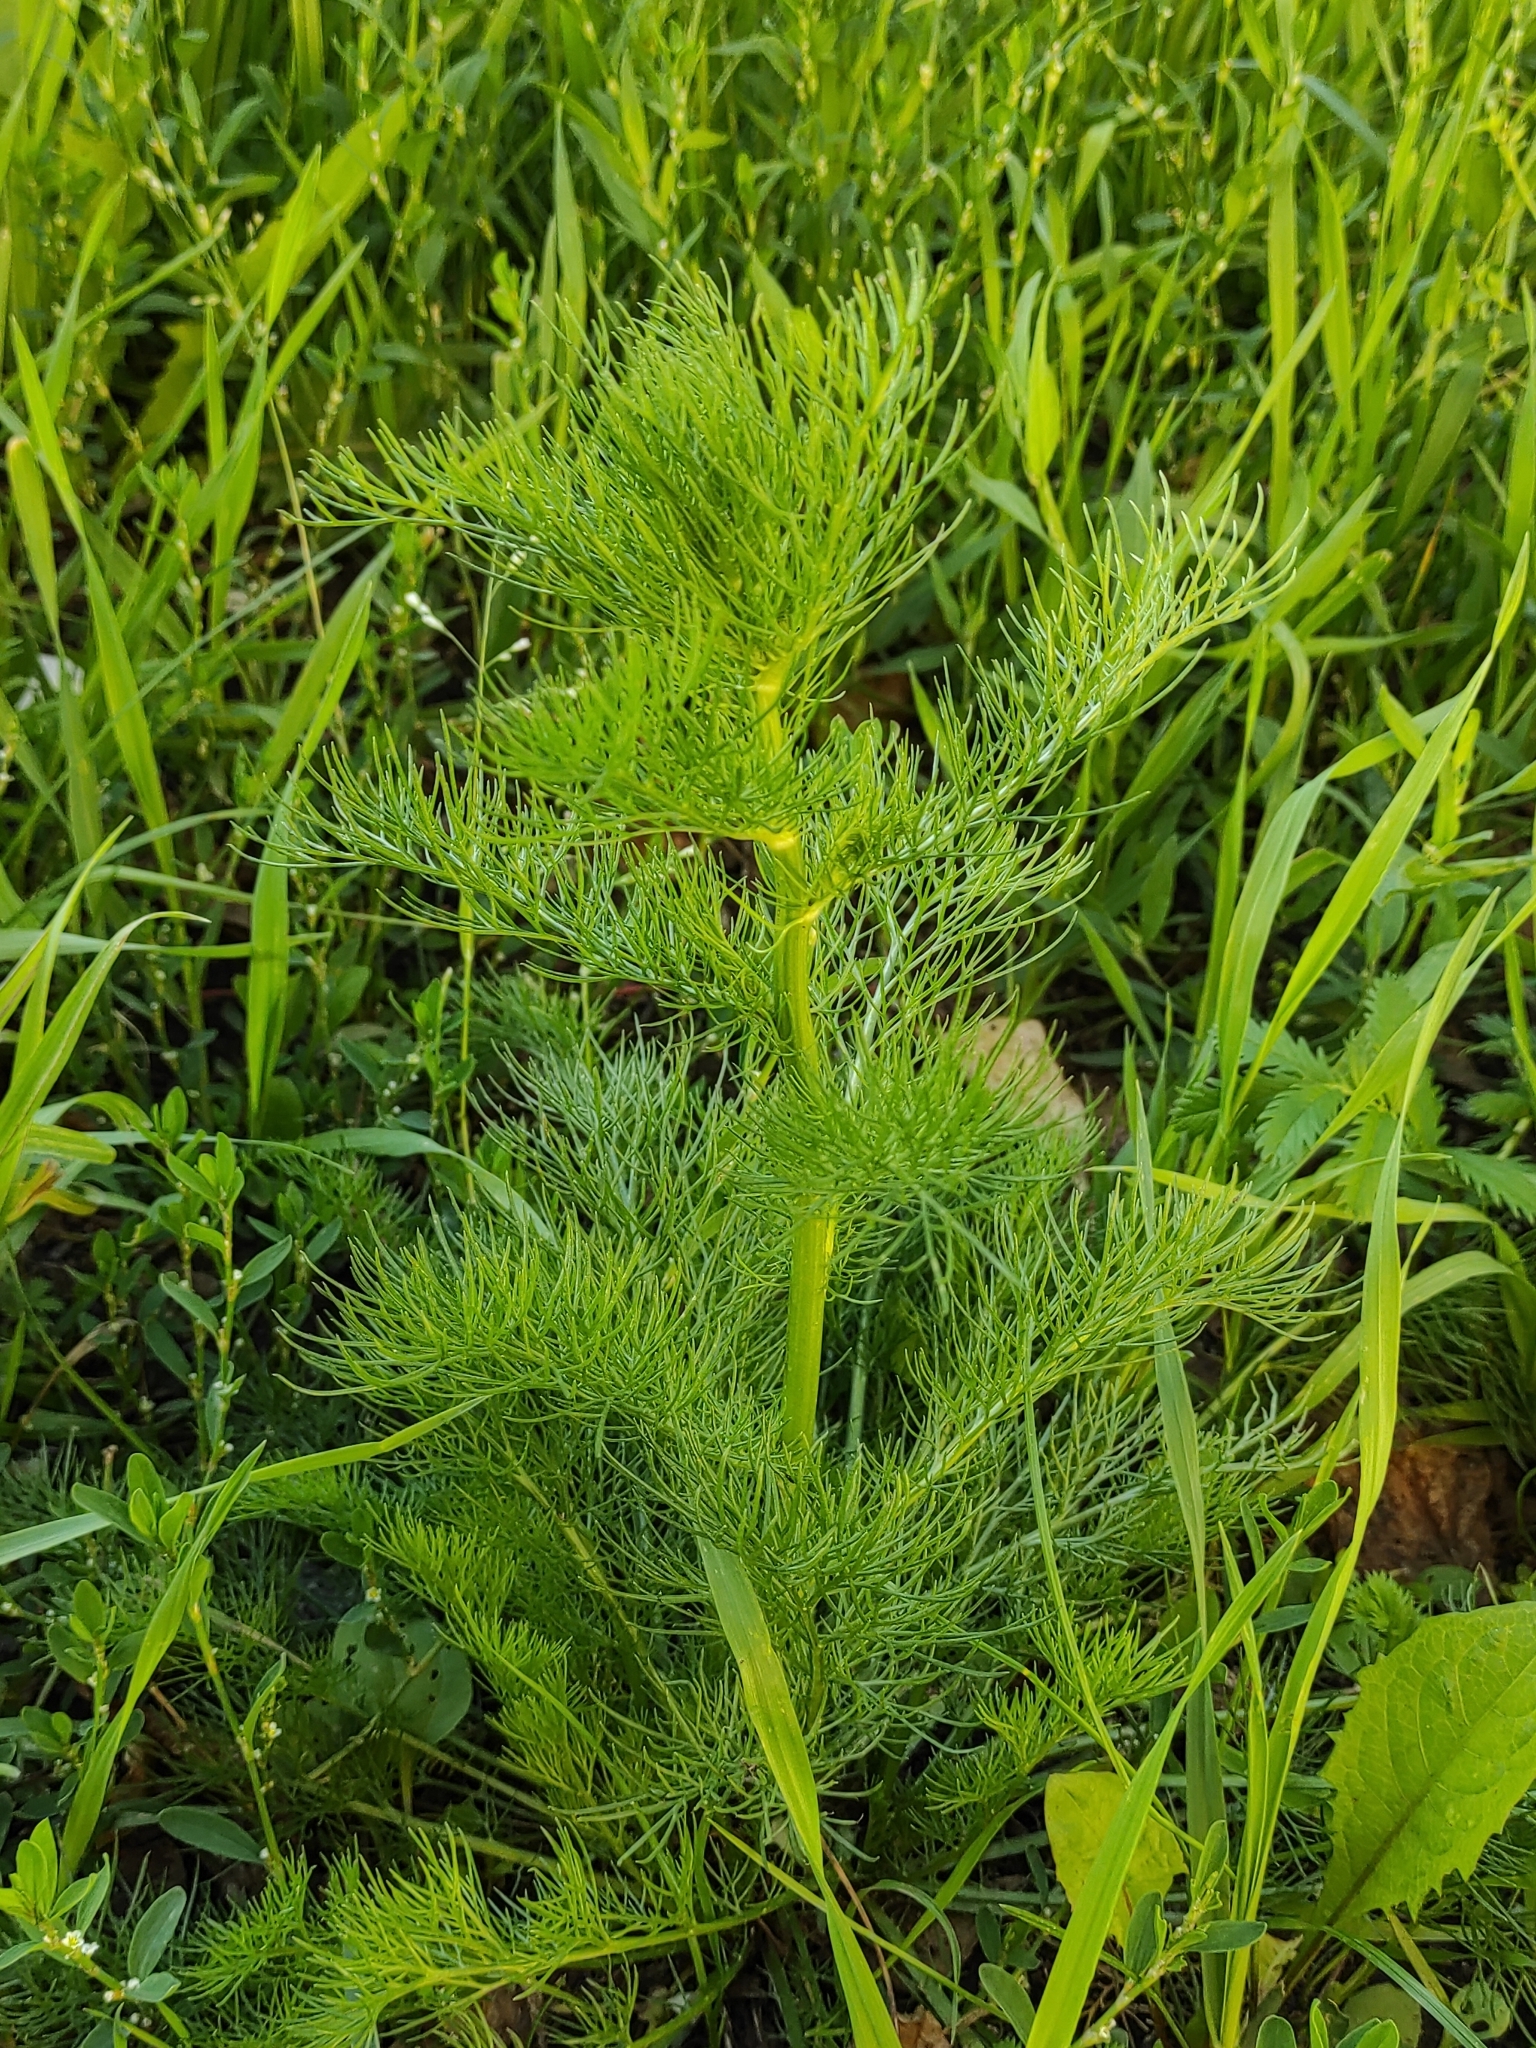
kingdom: Plantae
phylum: Tracheophyta
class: Magnoliopsida
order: Asterales
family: Asteraceae
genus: Tripleurospermum
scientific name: Tripleurospermum inodorum
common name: Scentless mayweed
